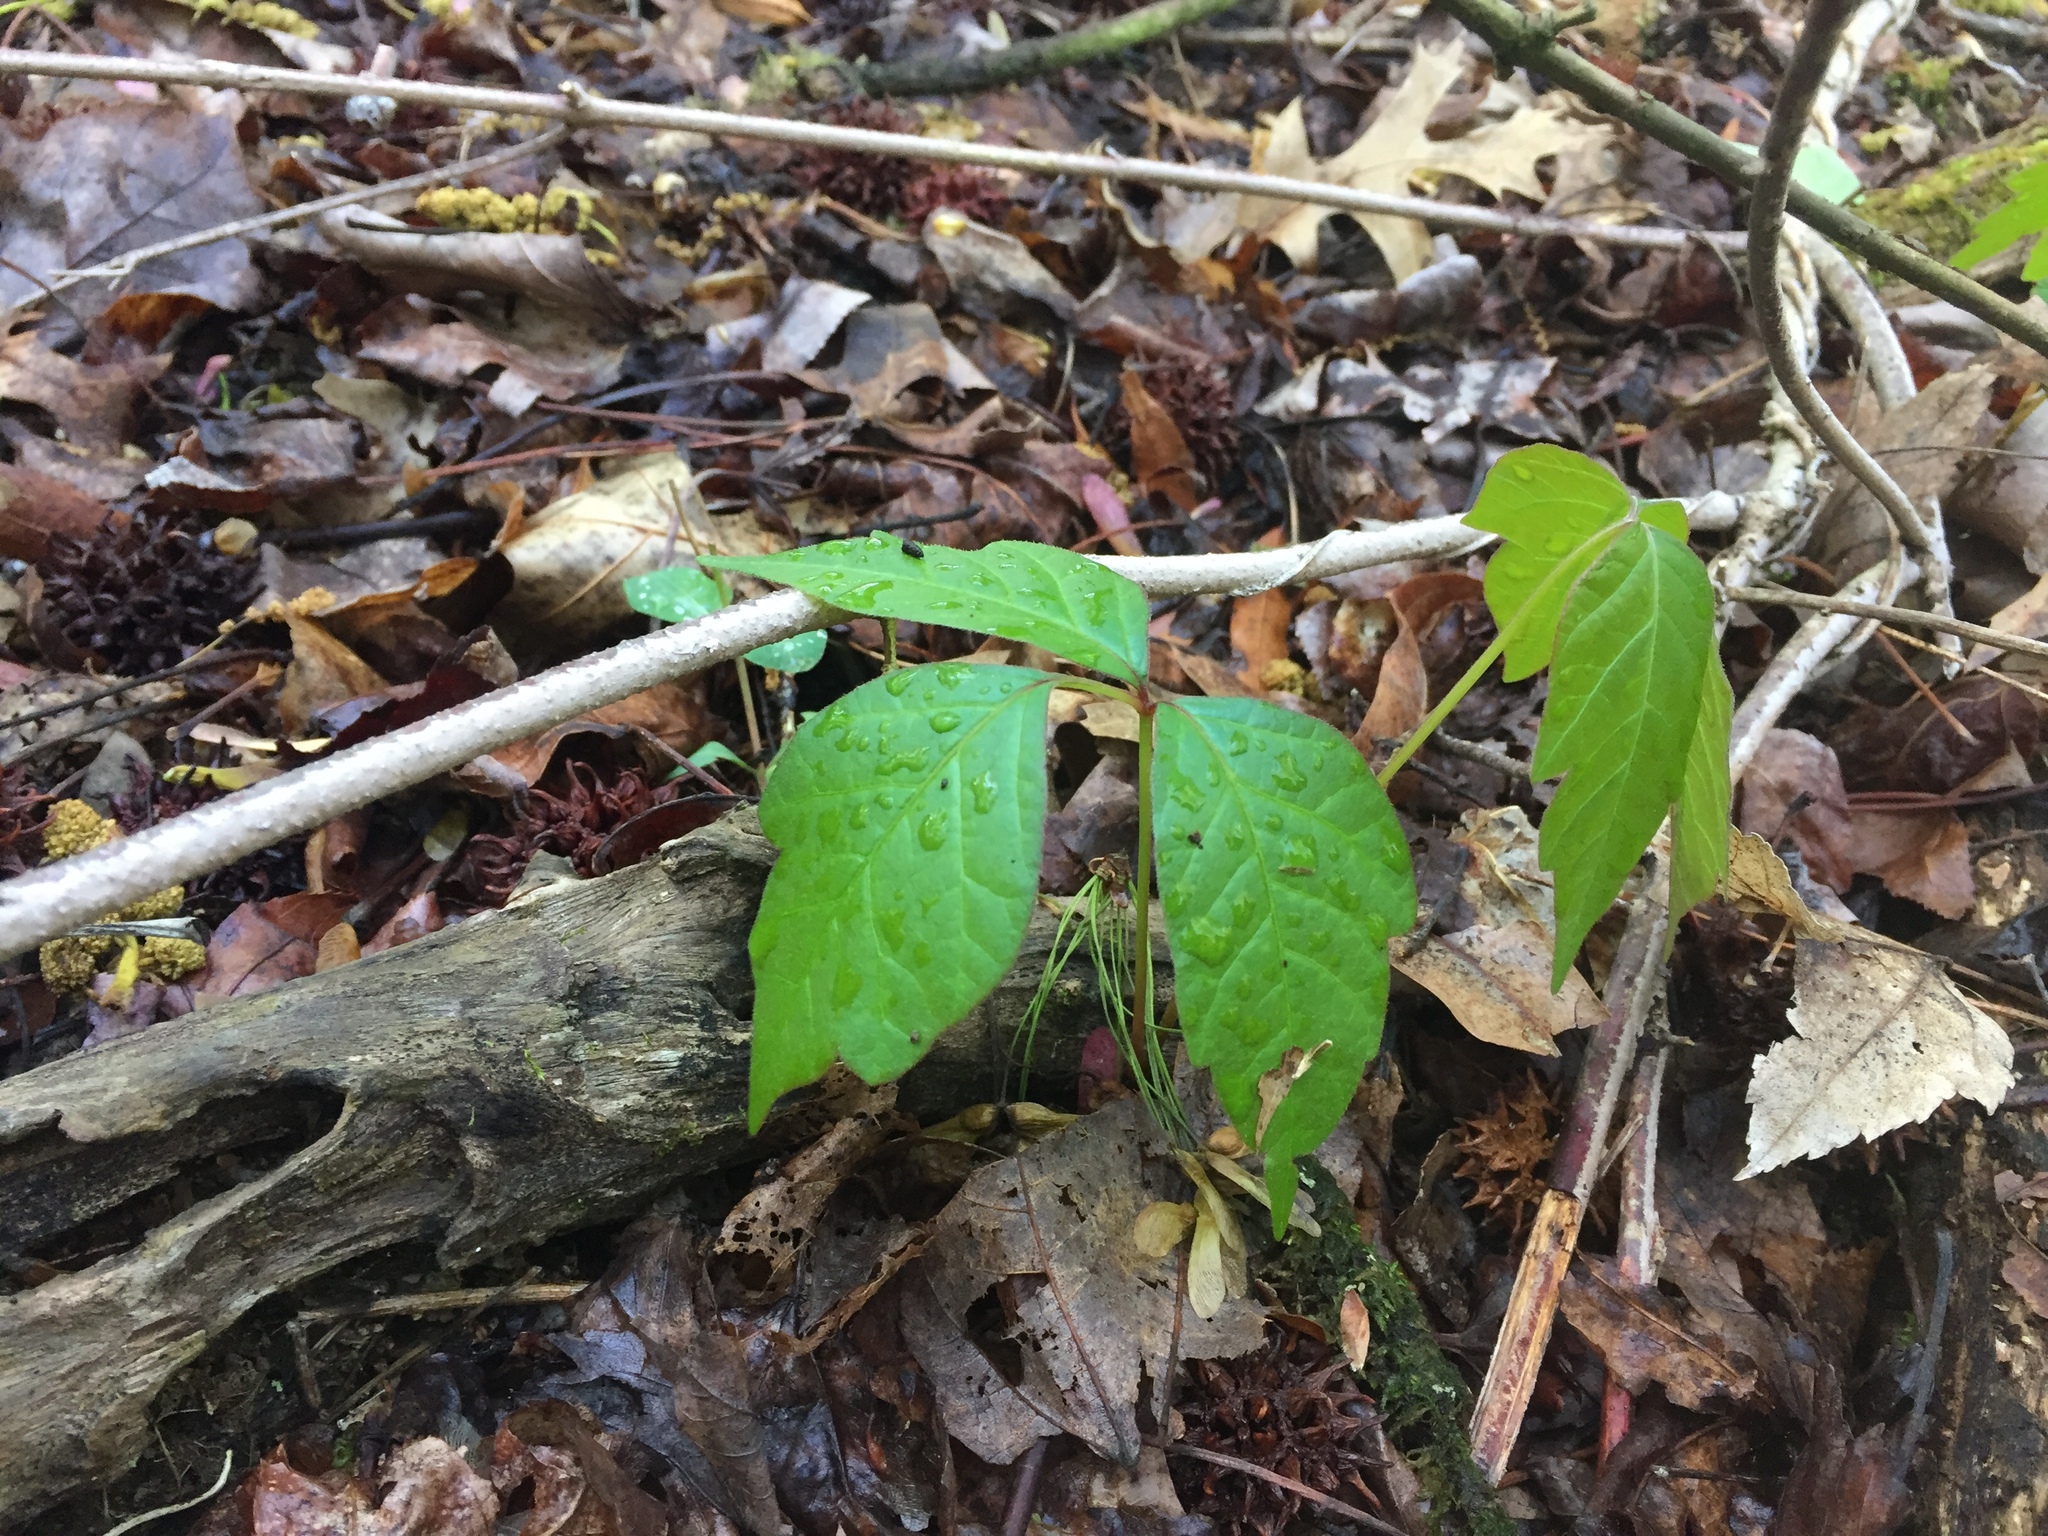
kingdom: Plantae
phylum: Tracheophyta
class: Magnoliopsida
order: Sapindales
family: Anacardiaceae
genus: Toxicodendron
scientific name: Toxicodendron radicans
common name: Poison ivy
